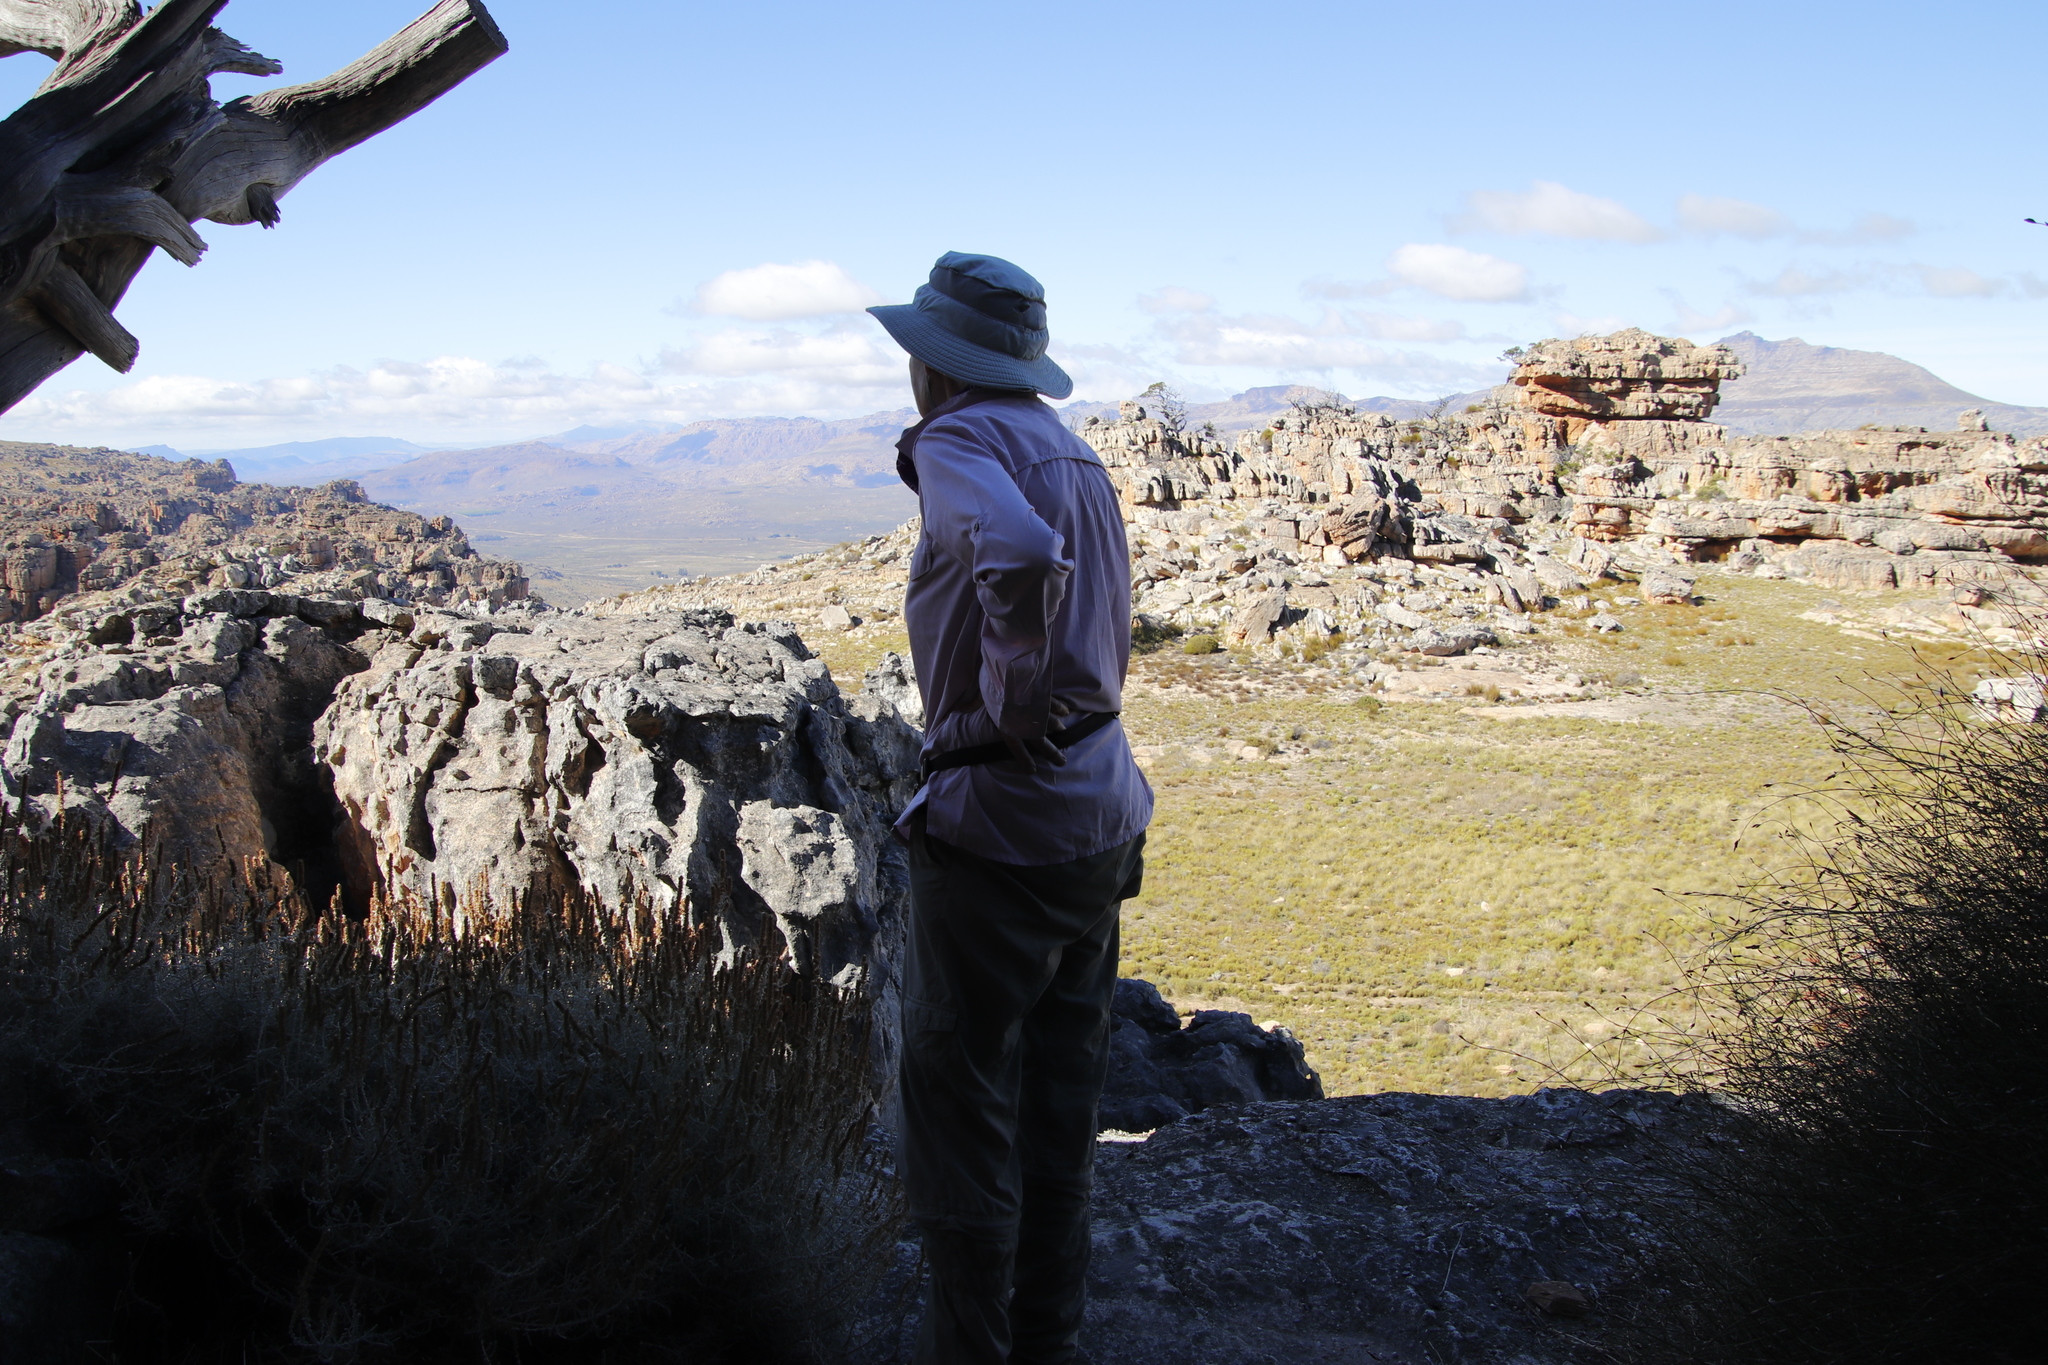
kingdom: Plantae
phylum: Tracheophyta
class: Pinopsida
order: Pinales
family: Cupressaceae
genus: Widdringtonia
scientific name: Widdringtonia nodiflora
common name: Cape cypress
